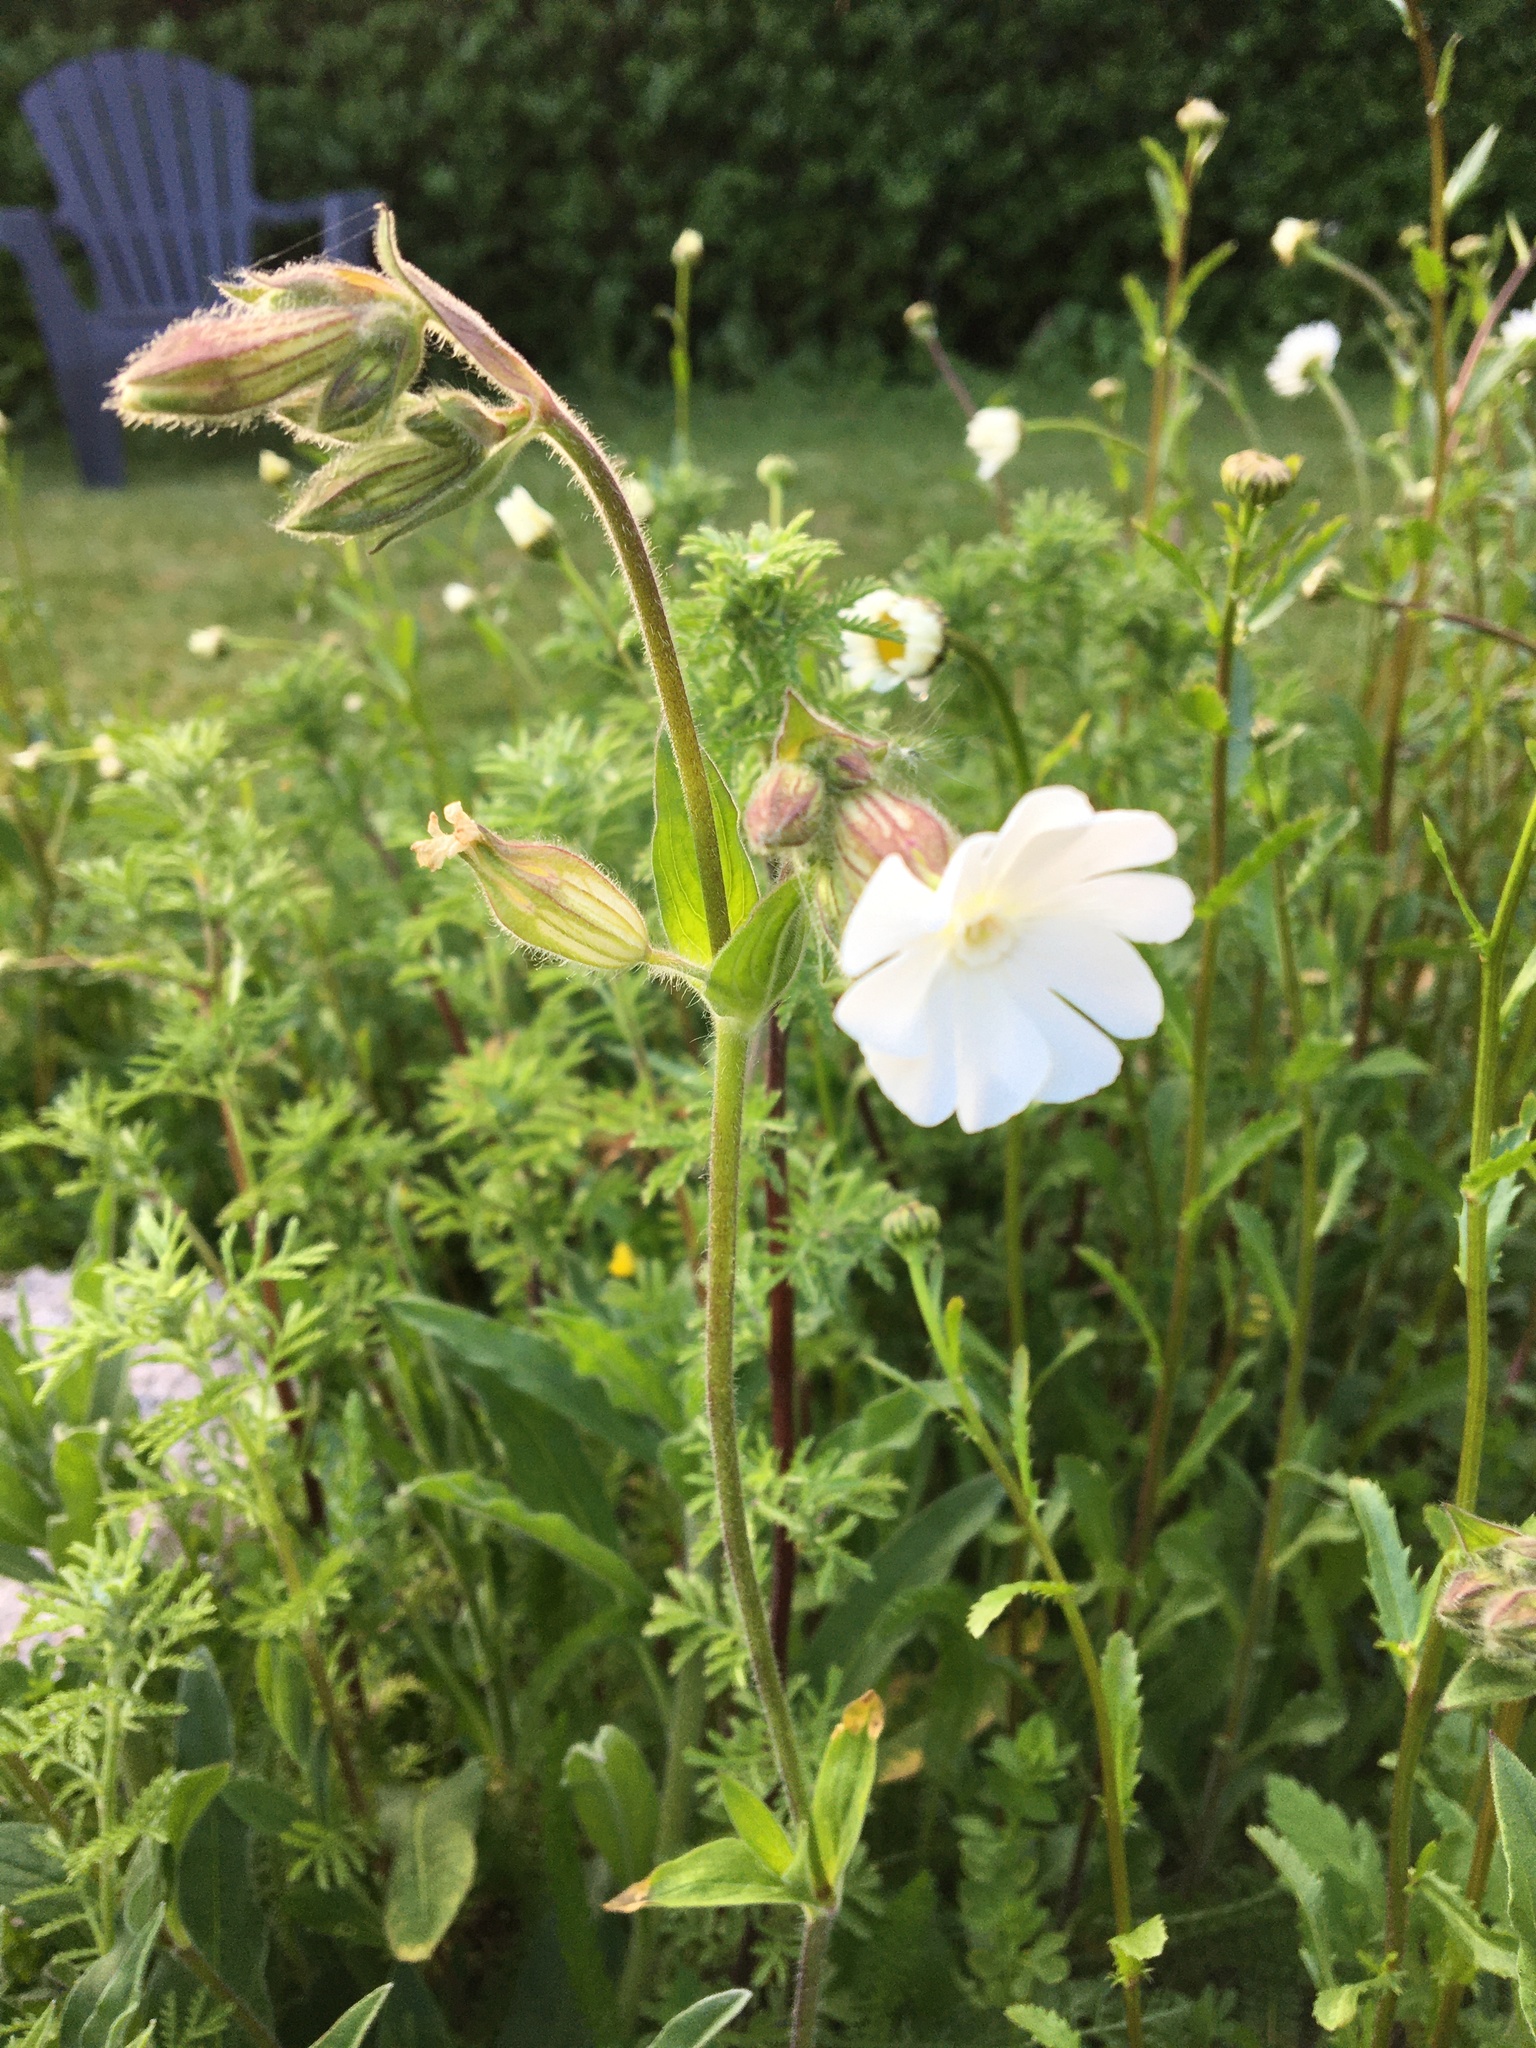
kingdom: Plantae
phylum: Tracheophyta
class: Magnoliopsida
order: Caryophyllales
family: Caryophyllaceae
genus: Silene
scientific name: Silene latifolia
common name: White campion
